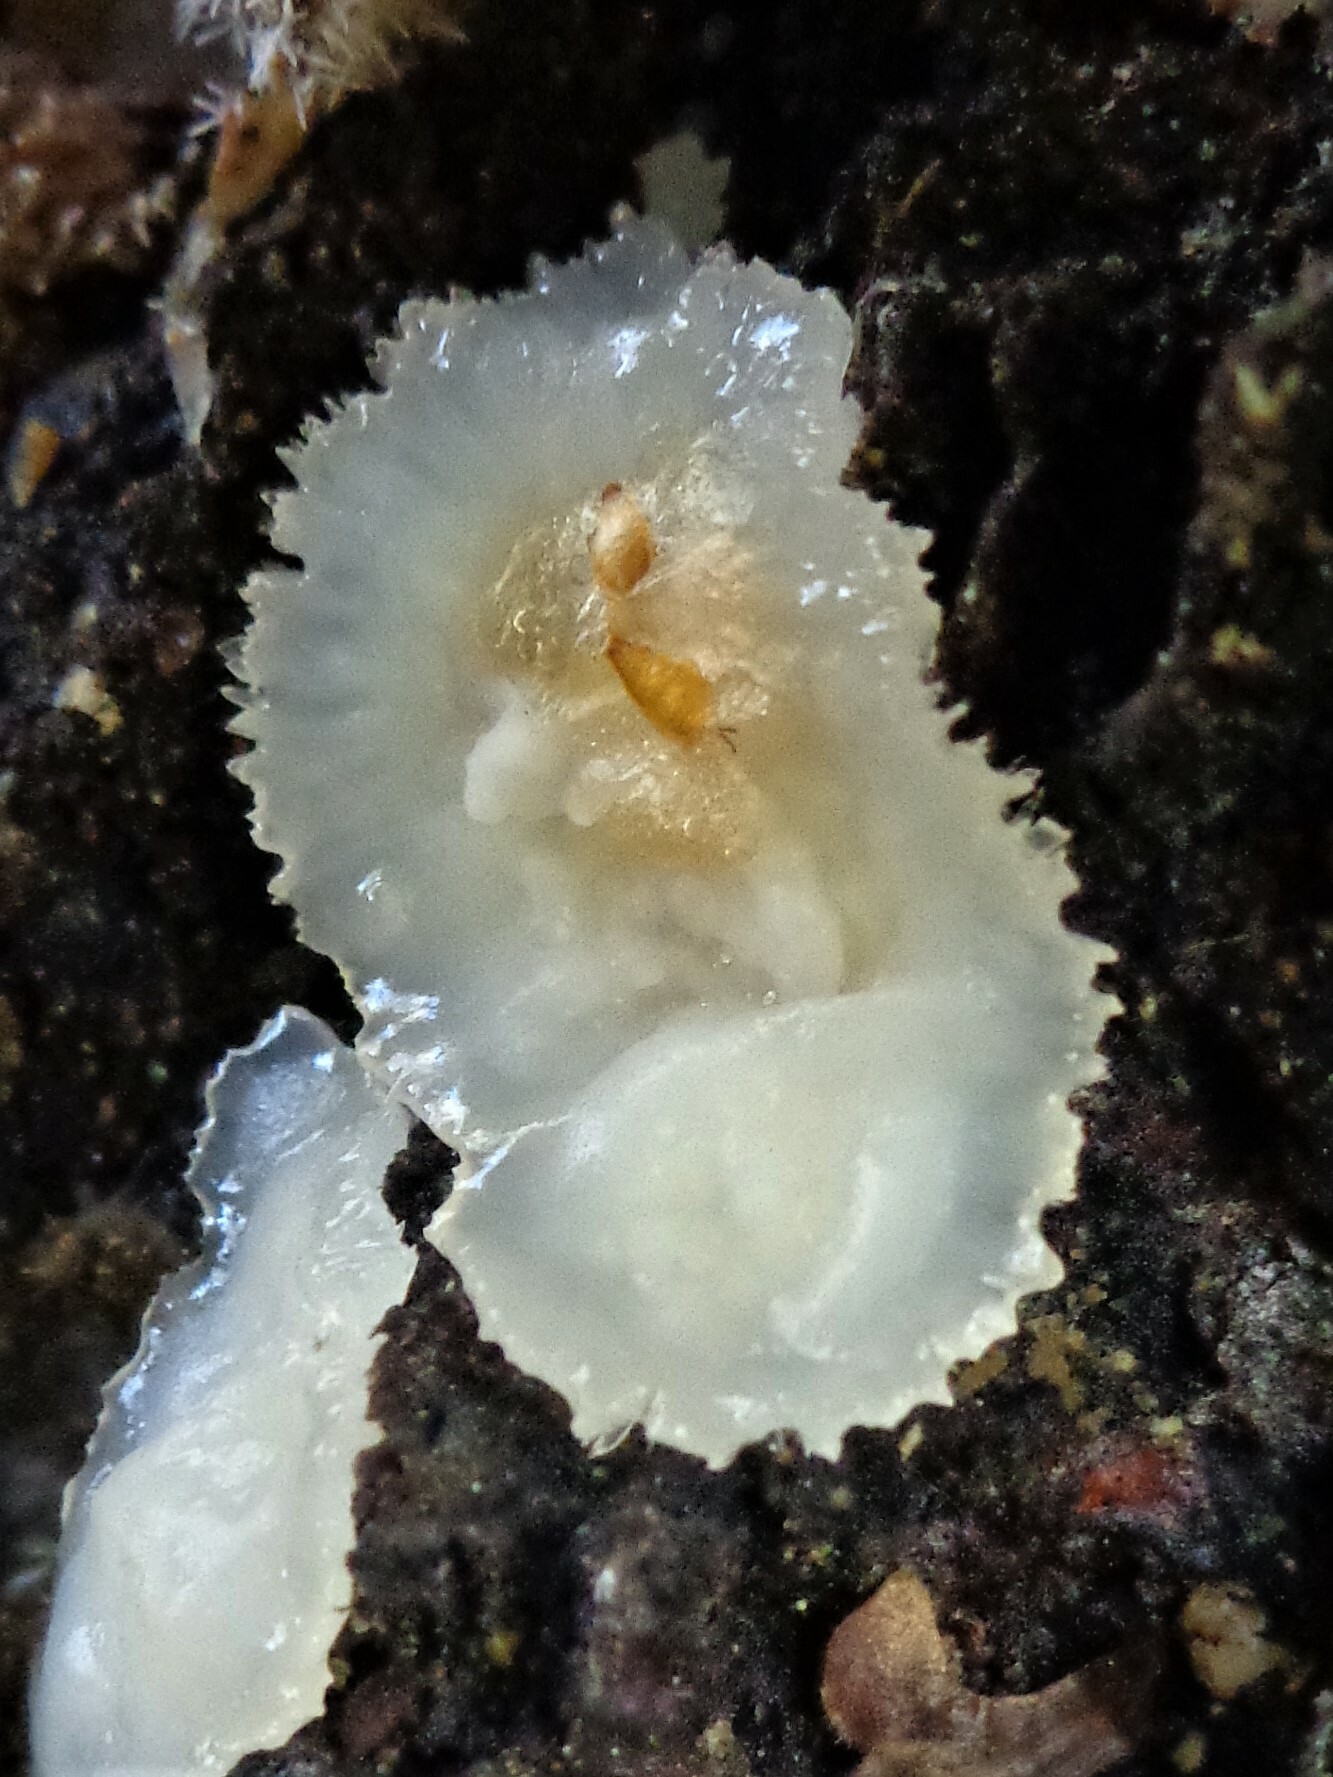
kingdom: Fungi
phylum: Basidiomycota
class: Agaricomycetes
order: Polyporales
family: Meruliaceae
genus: Phlebia
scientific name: Phlebia tremellosa
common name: Jelly rot
